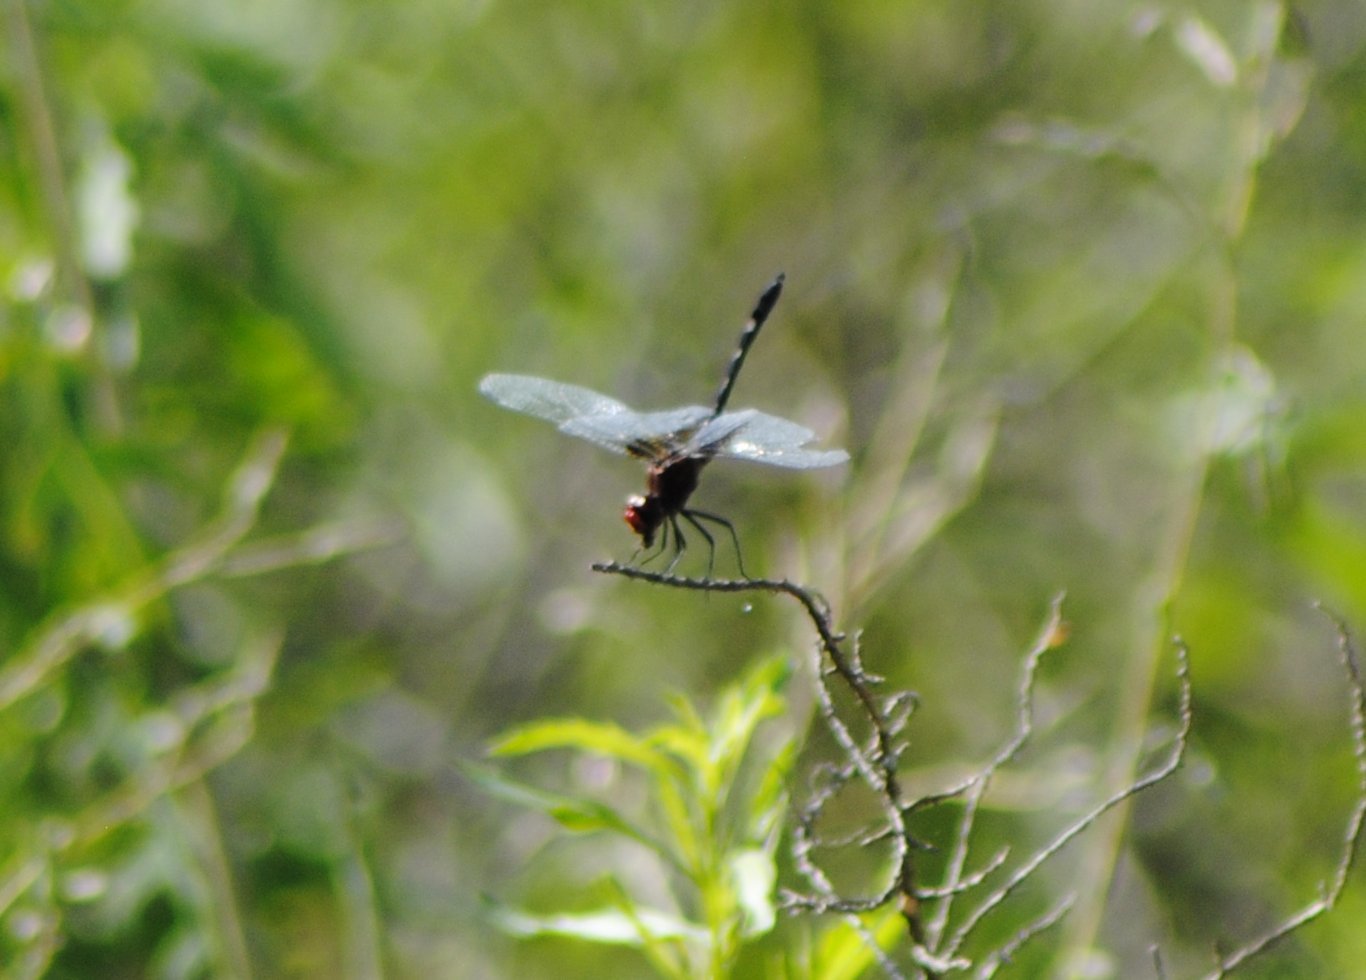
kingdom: Animalia
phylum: Arthropoda
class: Insecta
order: Odonata
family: Libellulidae
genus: Dythemis
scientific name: Dythemis fugax
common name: Checkered setwing
